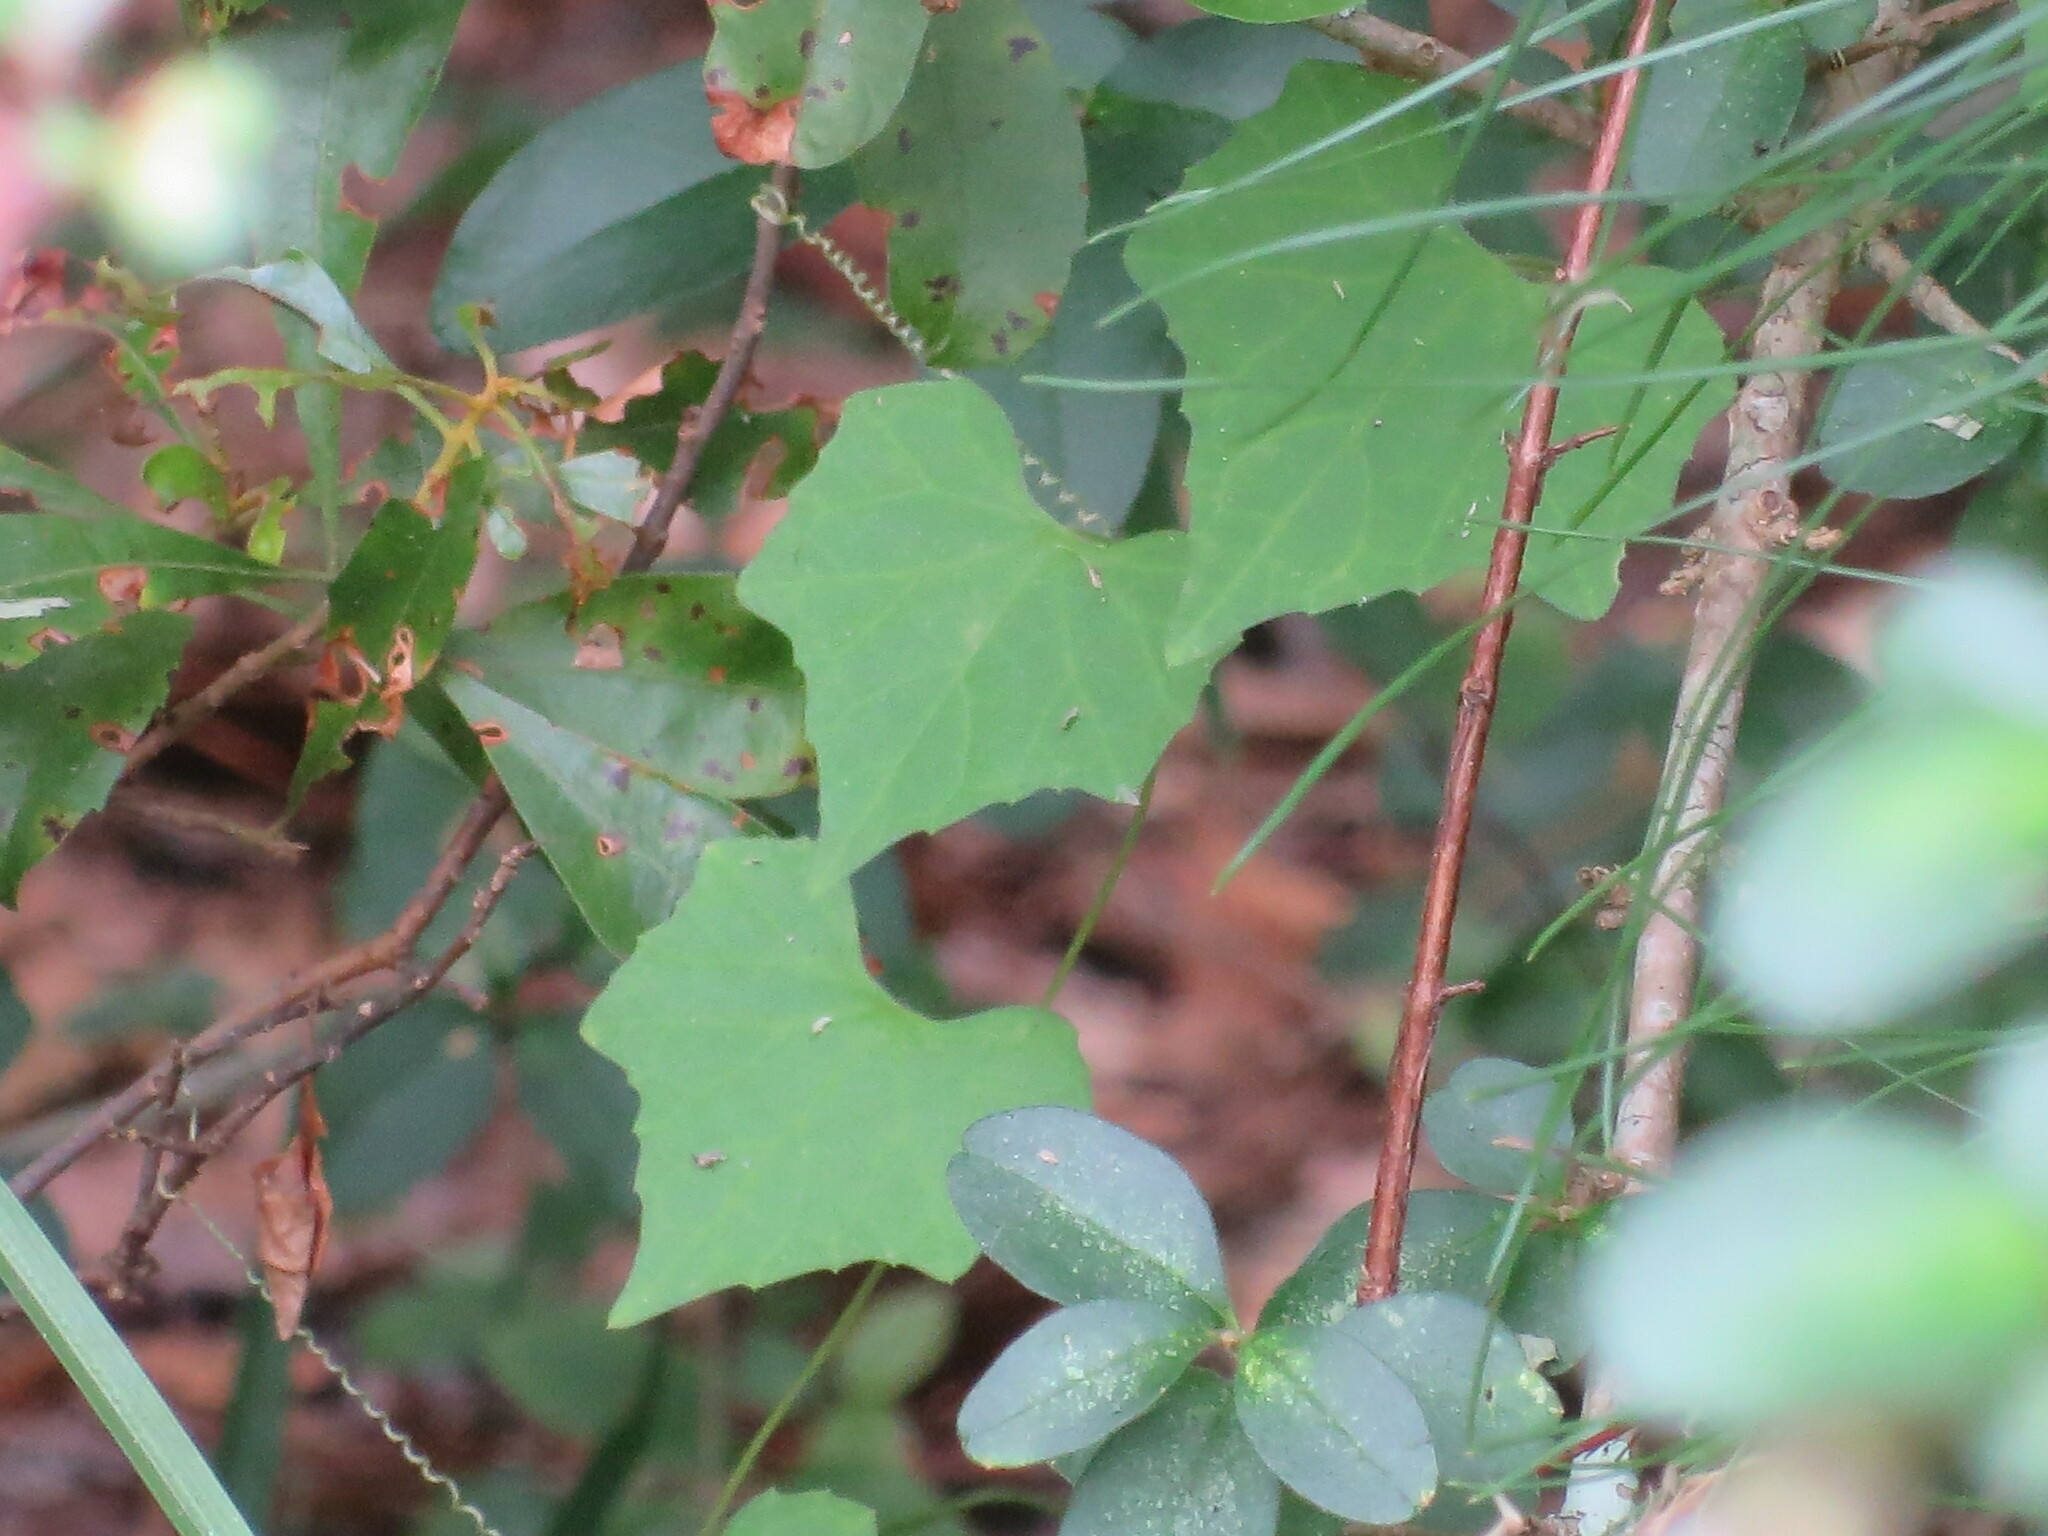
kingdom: Plantae
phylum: Tracheophyta
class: Magnoliopsida
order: Cucurbitales
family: Cucurbitaceae
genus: Melothria
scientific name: Melothria pendula
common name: Creeping-cucumber
